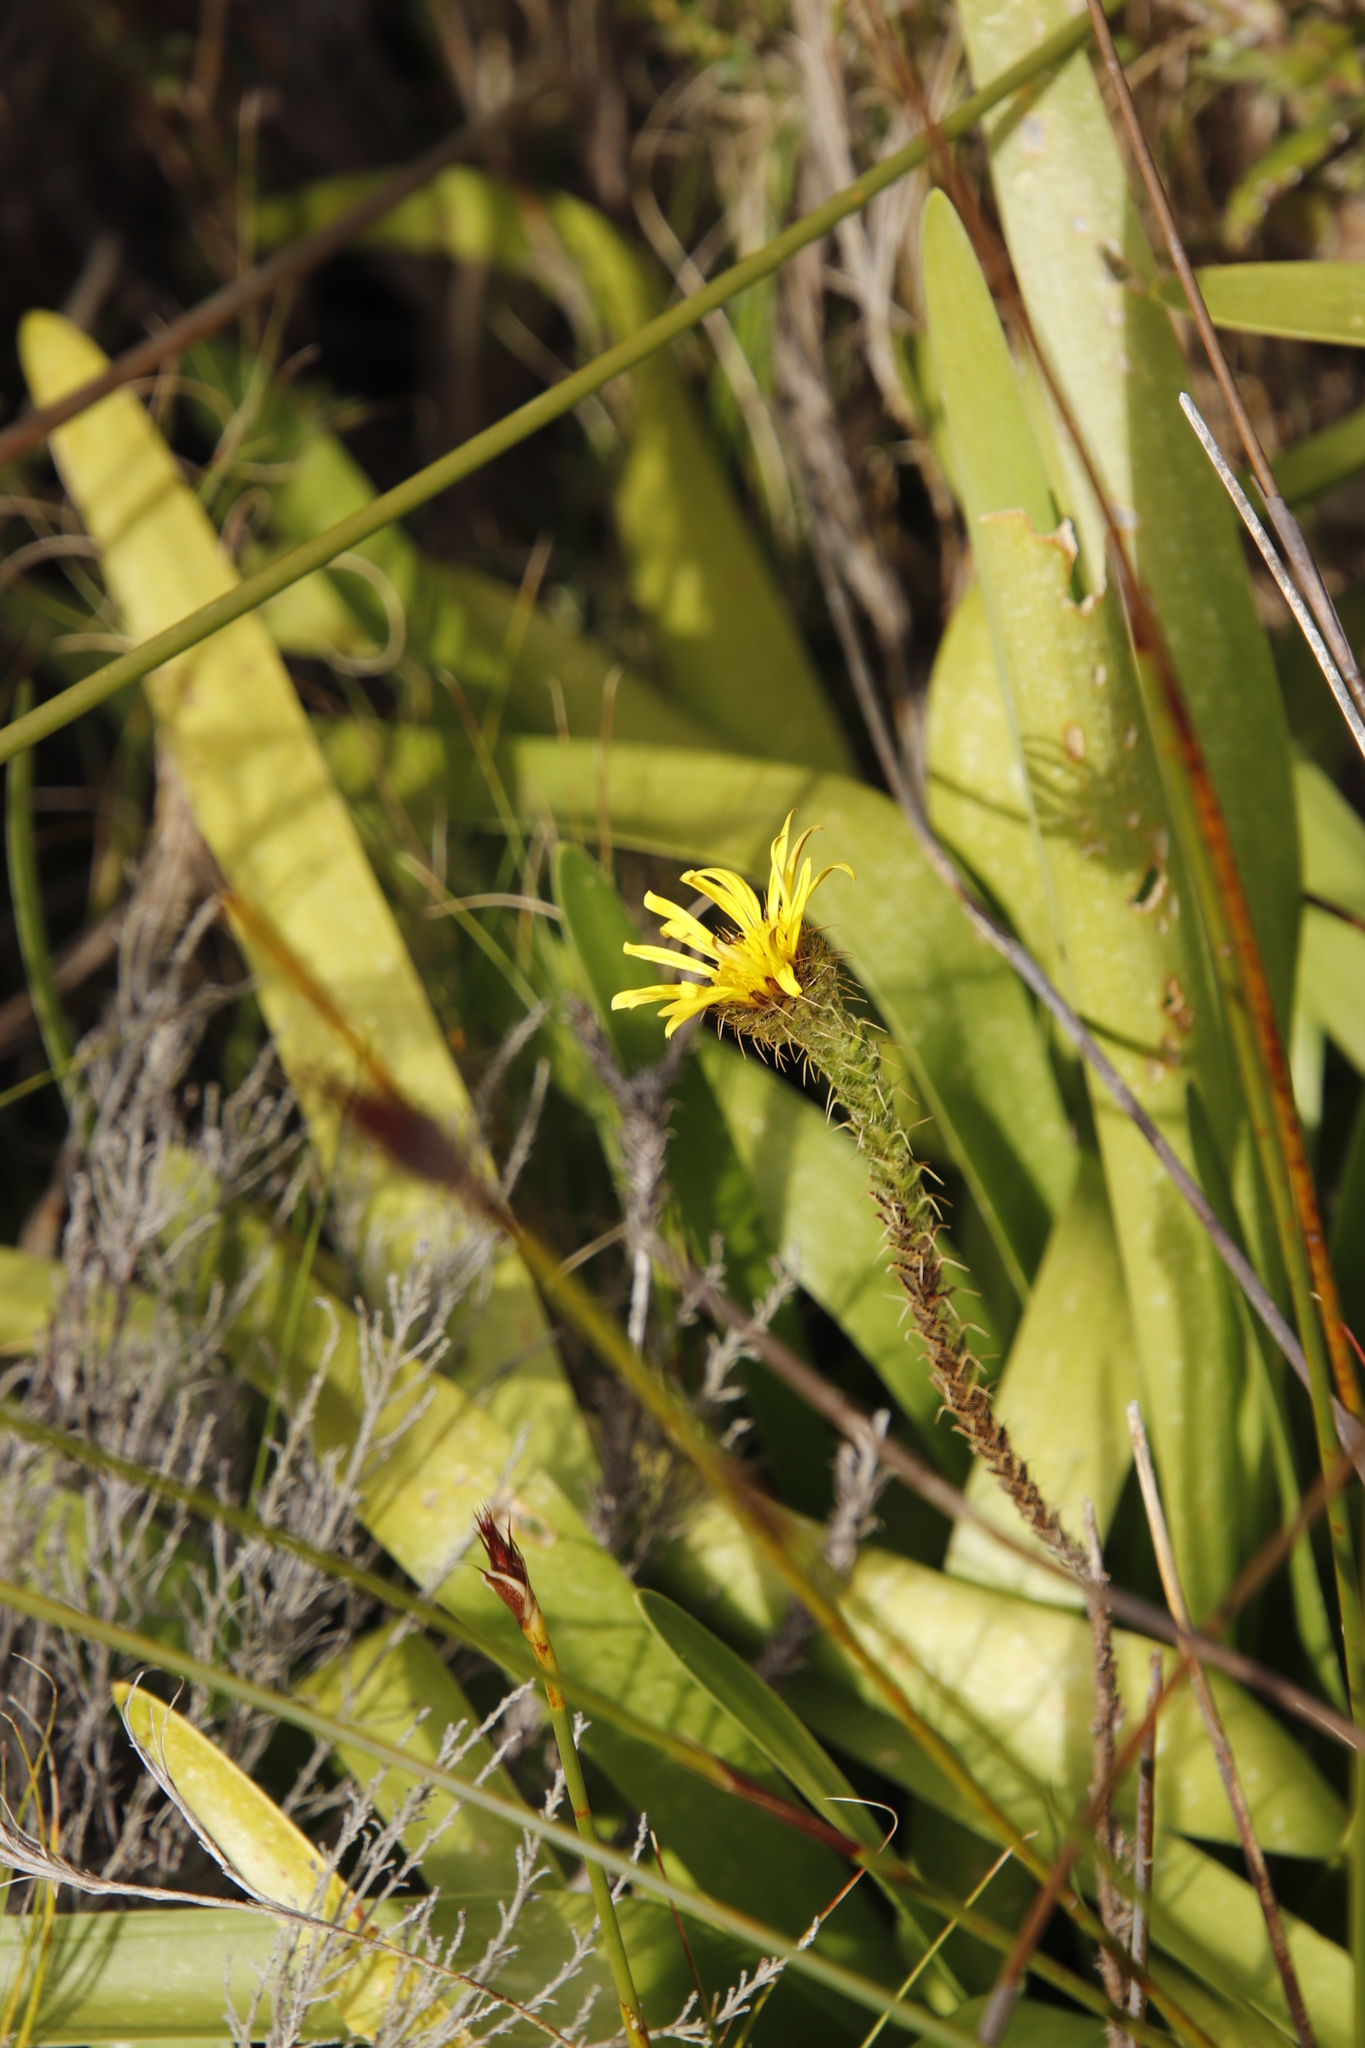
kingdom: Plantae
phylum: Tracheophyta
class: Magnoliopsida
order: Asterales
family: Asteraceae
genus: Cullumia
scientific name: Cullumia reticulata
